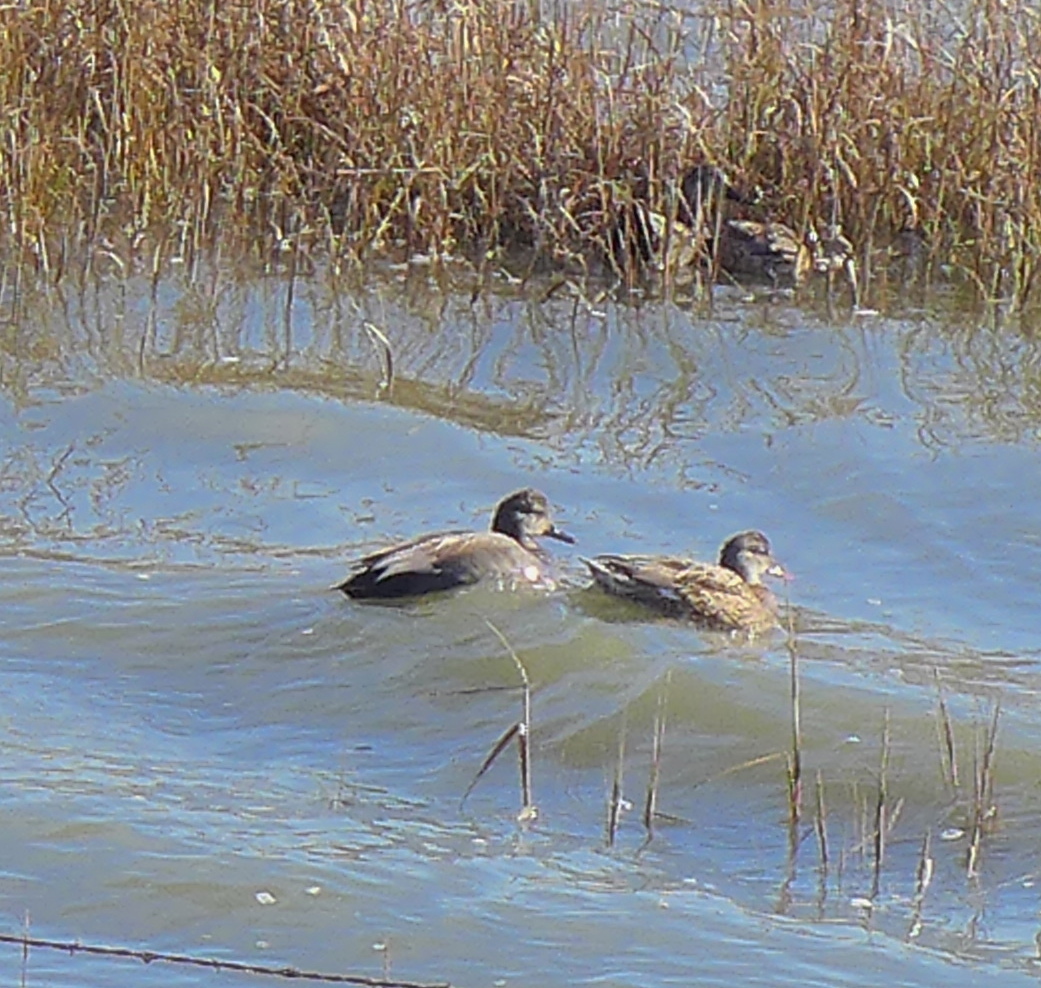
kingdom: Animalia
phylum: Chordata
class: Aves
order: Anseriformes
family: Anatidae
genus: Mareca
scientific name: Mareca strepera
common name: Gadwall
